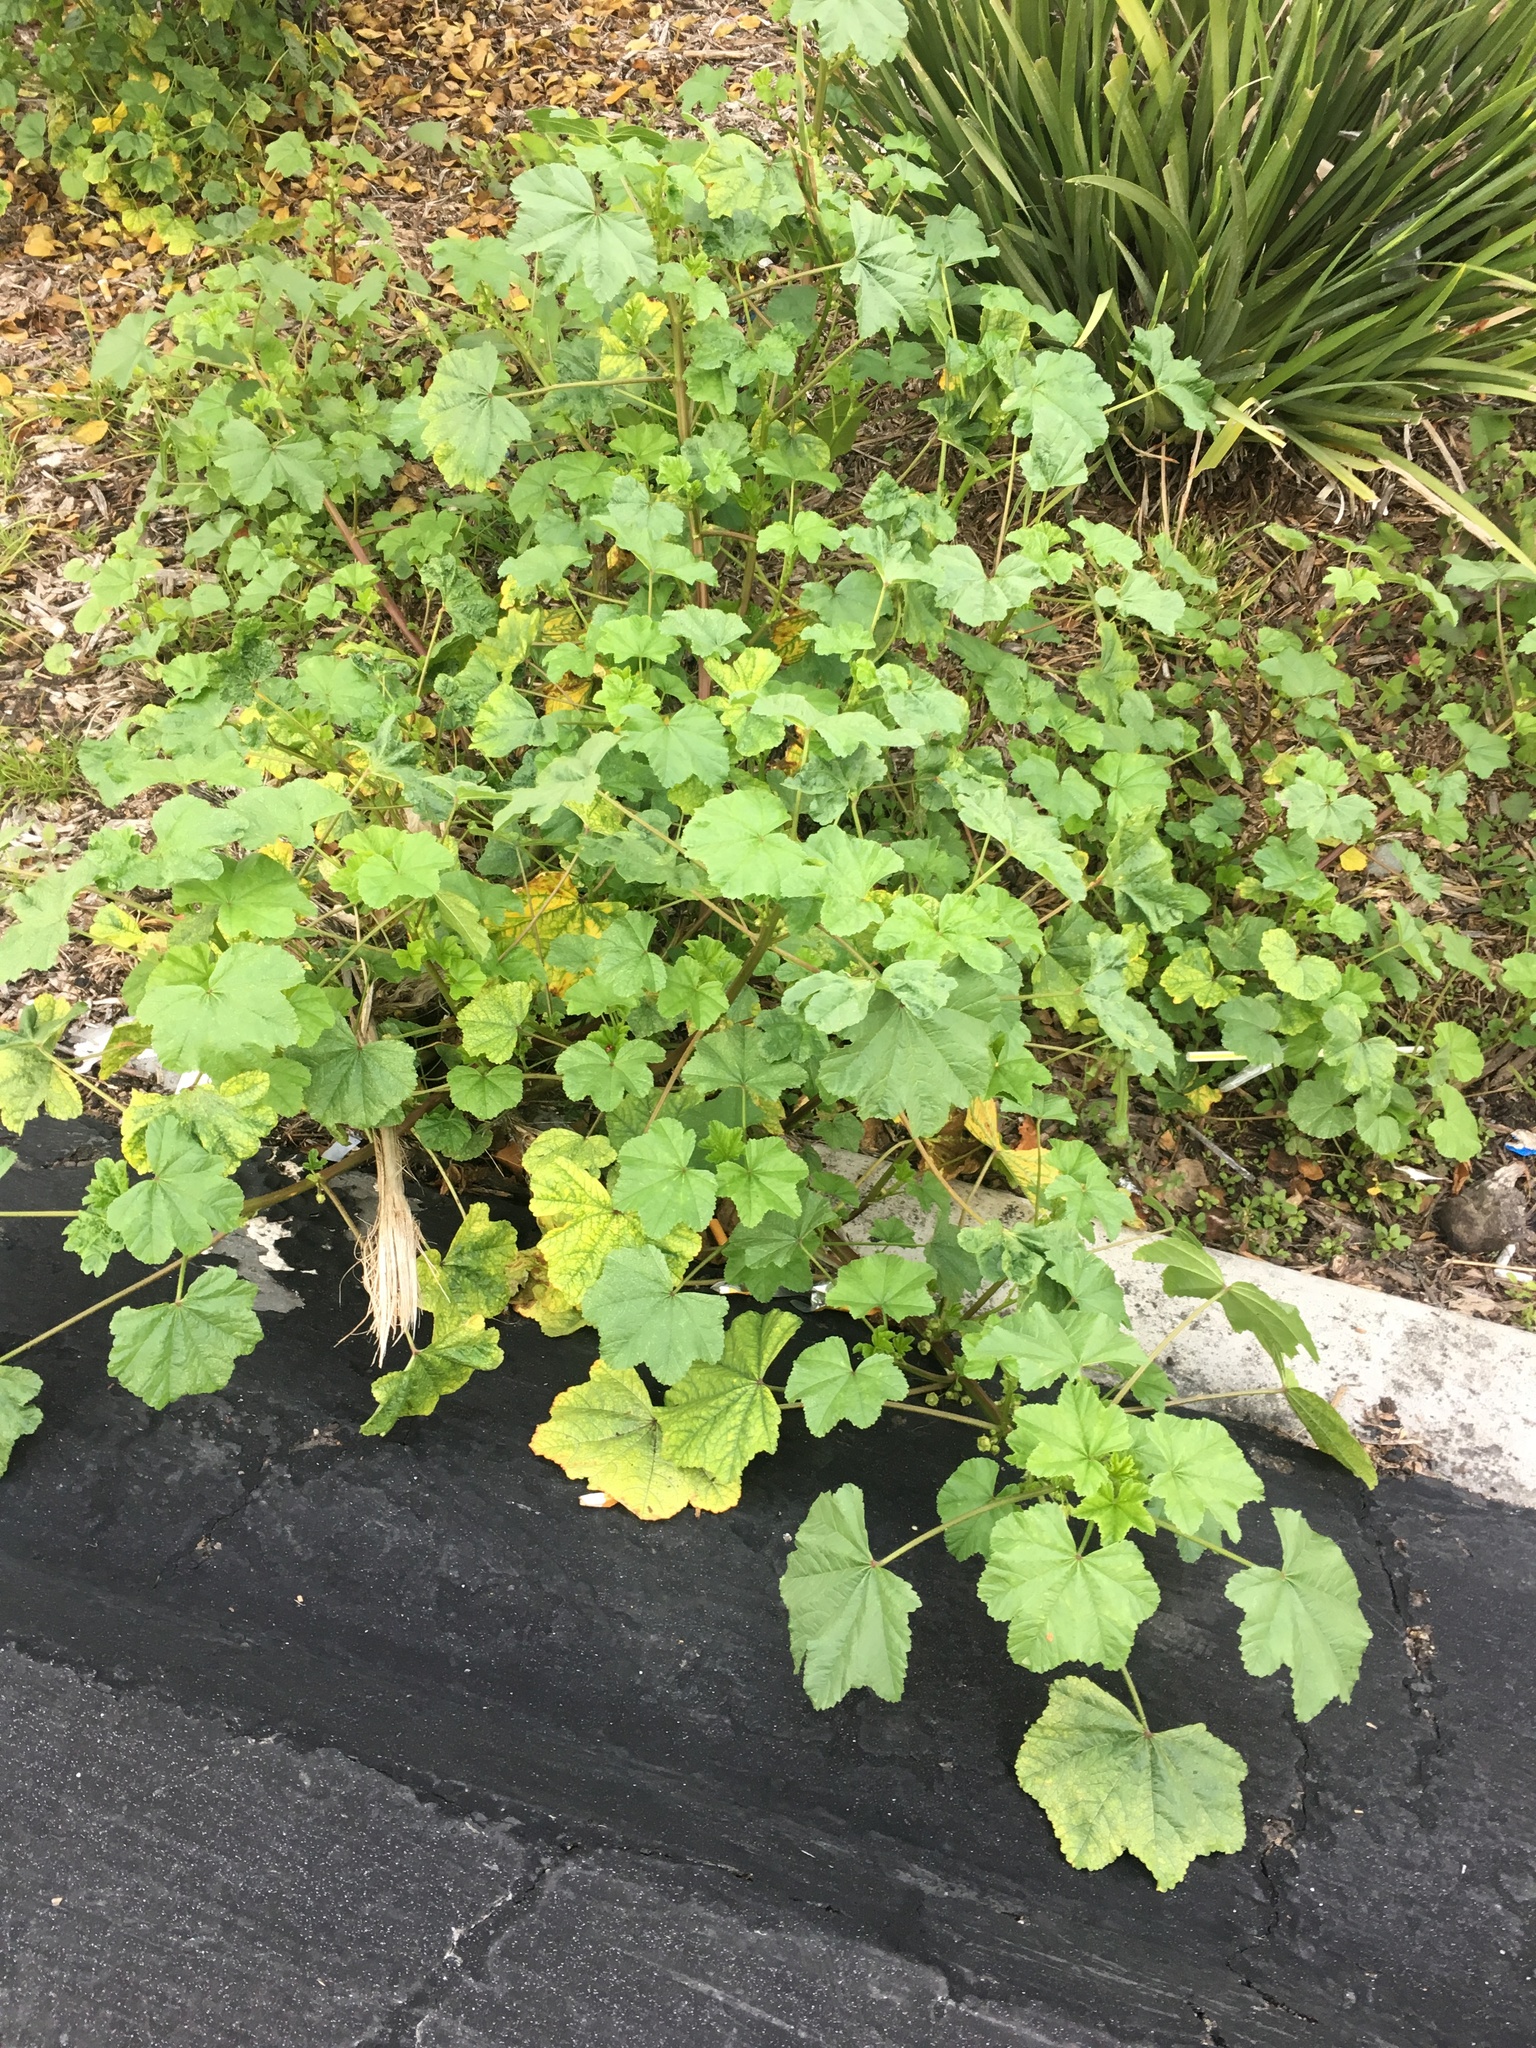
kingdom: Plantae
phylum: Tracheophyta
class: Magnoliopsida
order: Malvales
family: Malvaceae
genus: Malva
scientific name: Malva parviflora
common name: Least mallow
